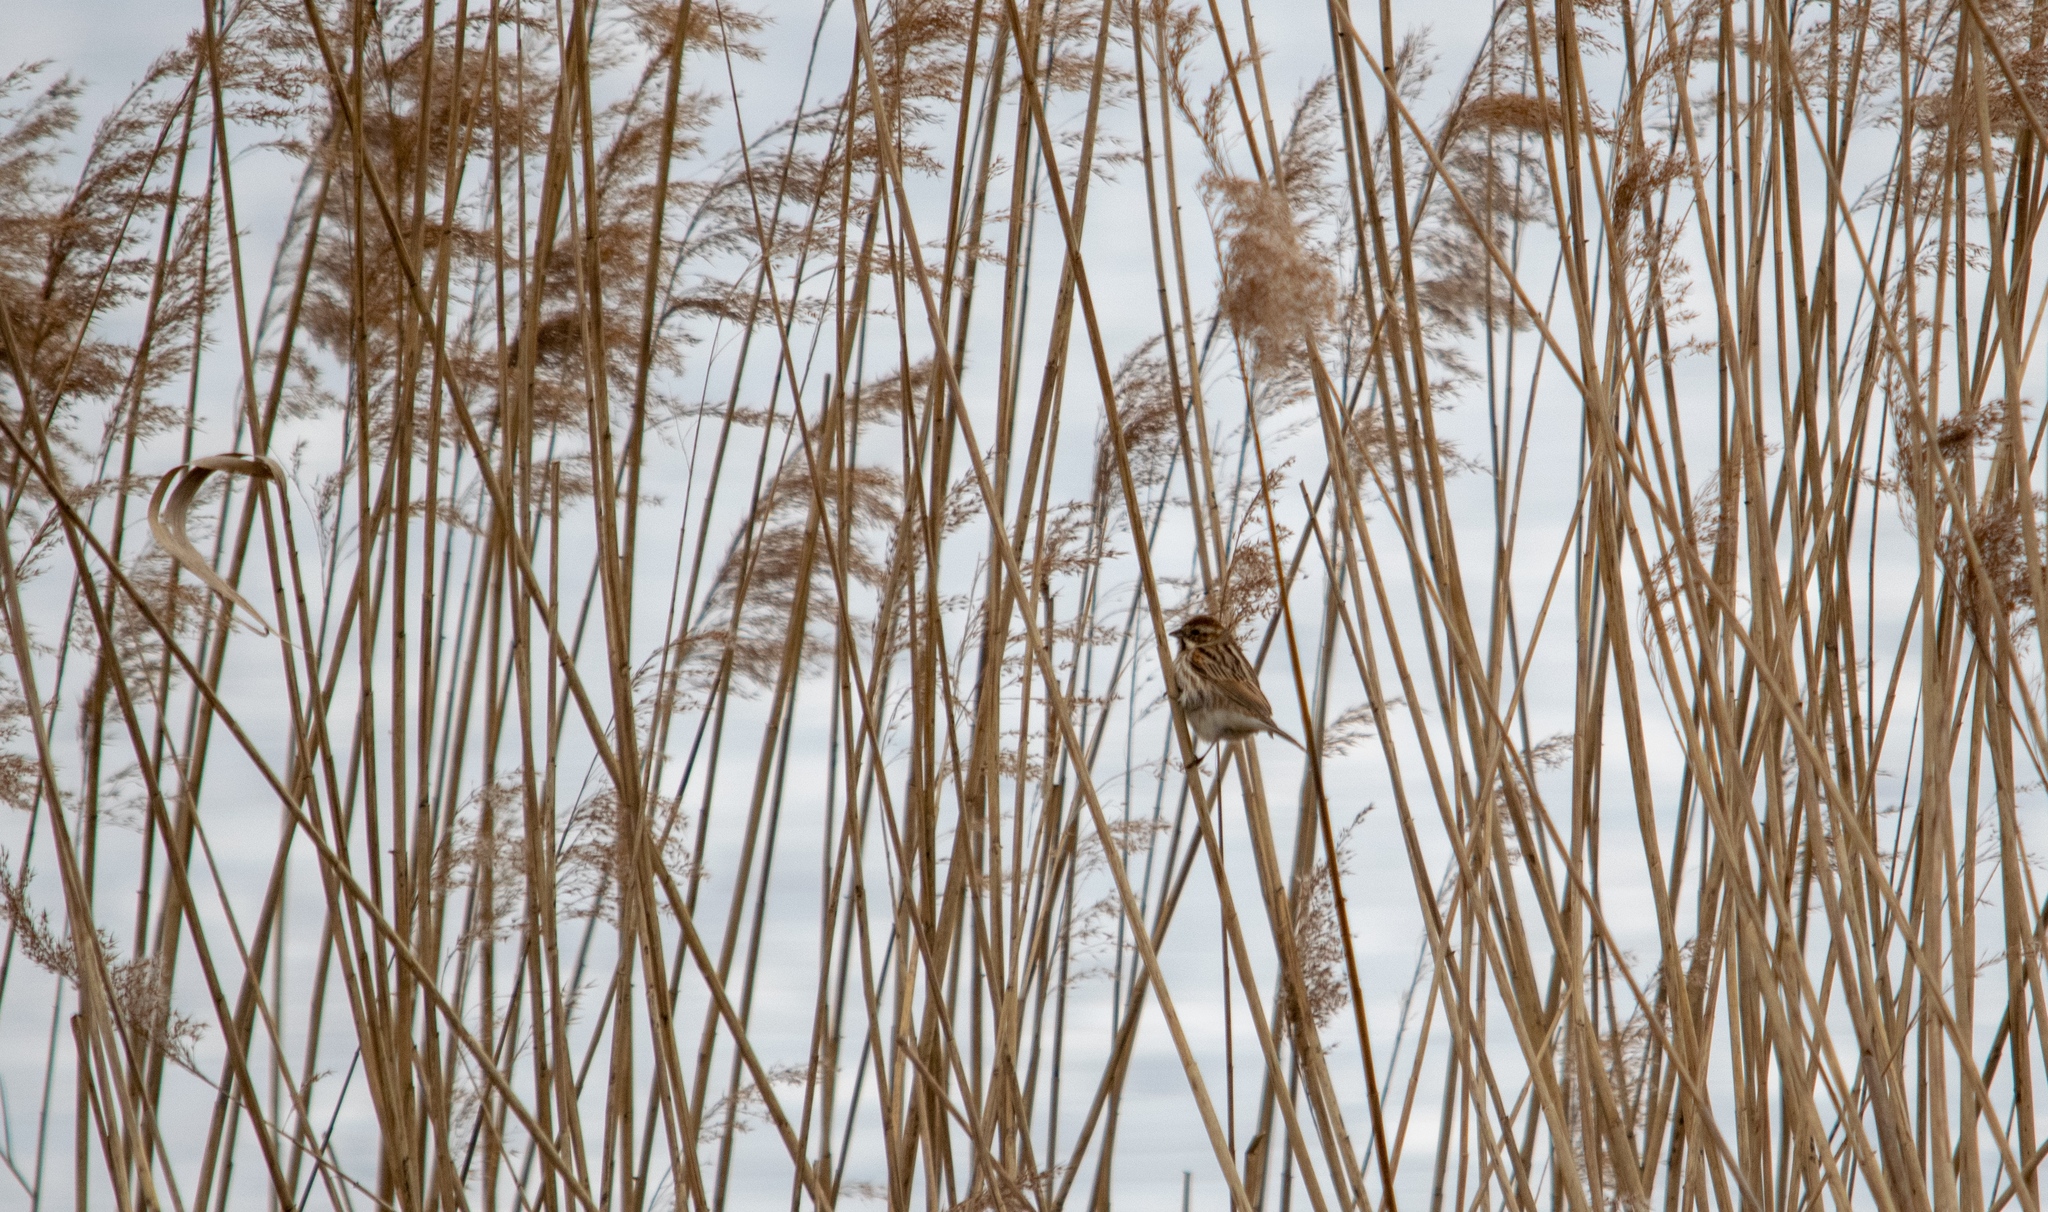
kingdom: Animalia
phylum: Chordata
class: Aves
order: Passeriformes
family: Emberizidae
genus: Emberiza
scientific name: Emberiza schoeniclus
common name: Reed bunting
